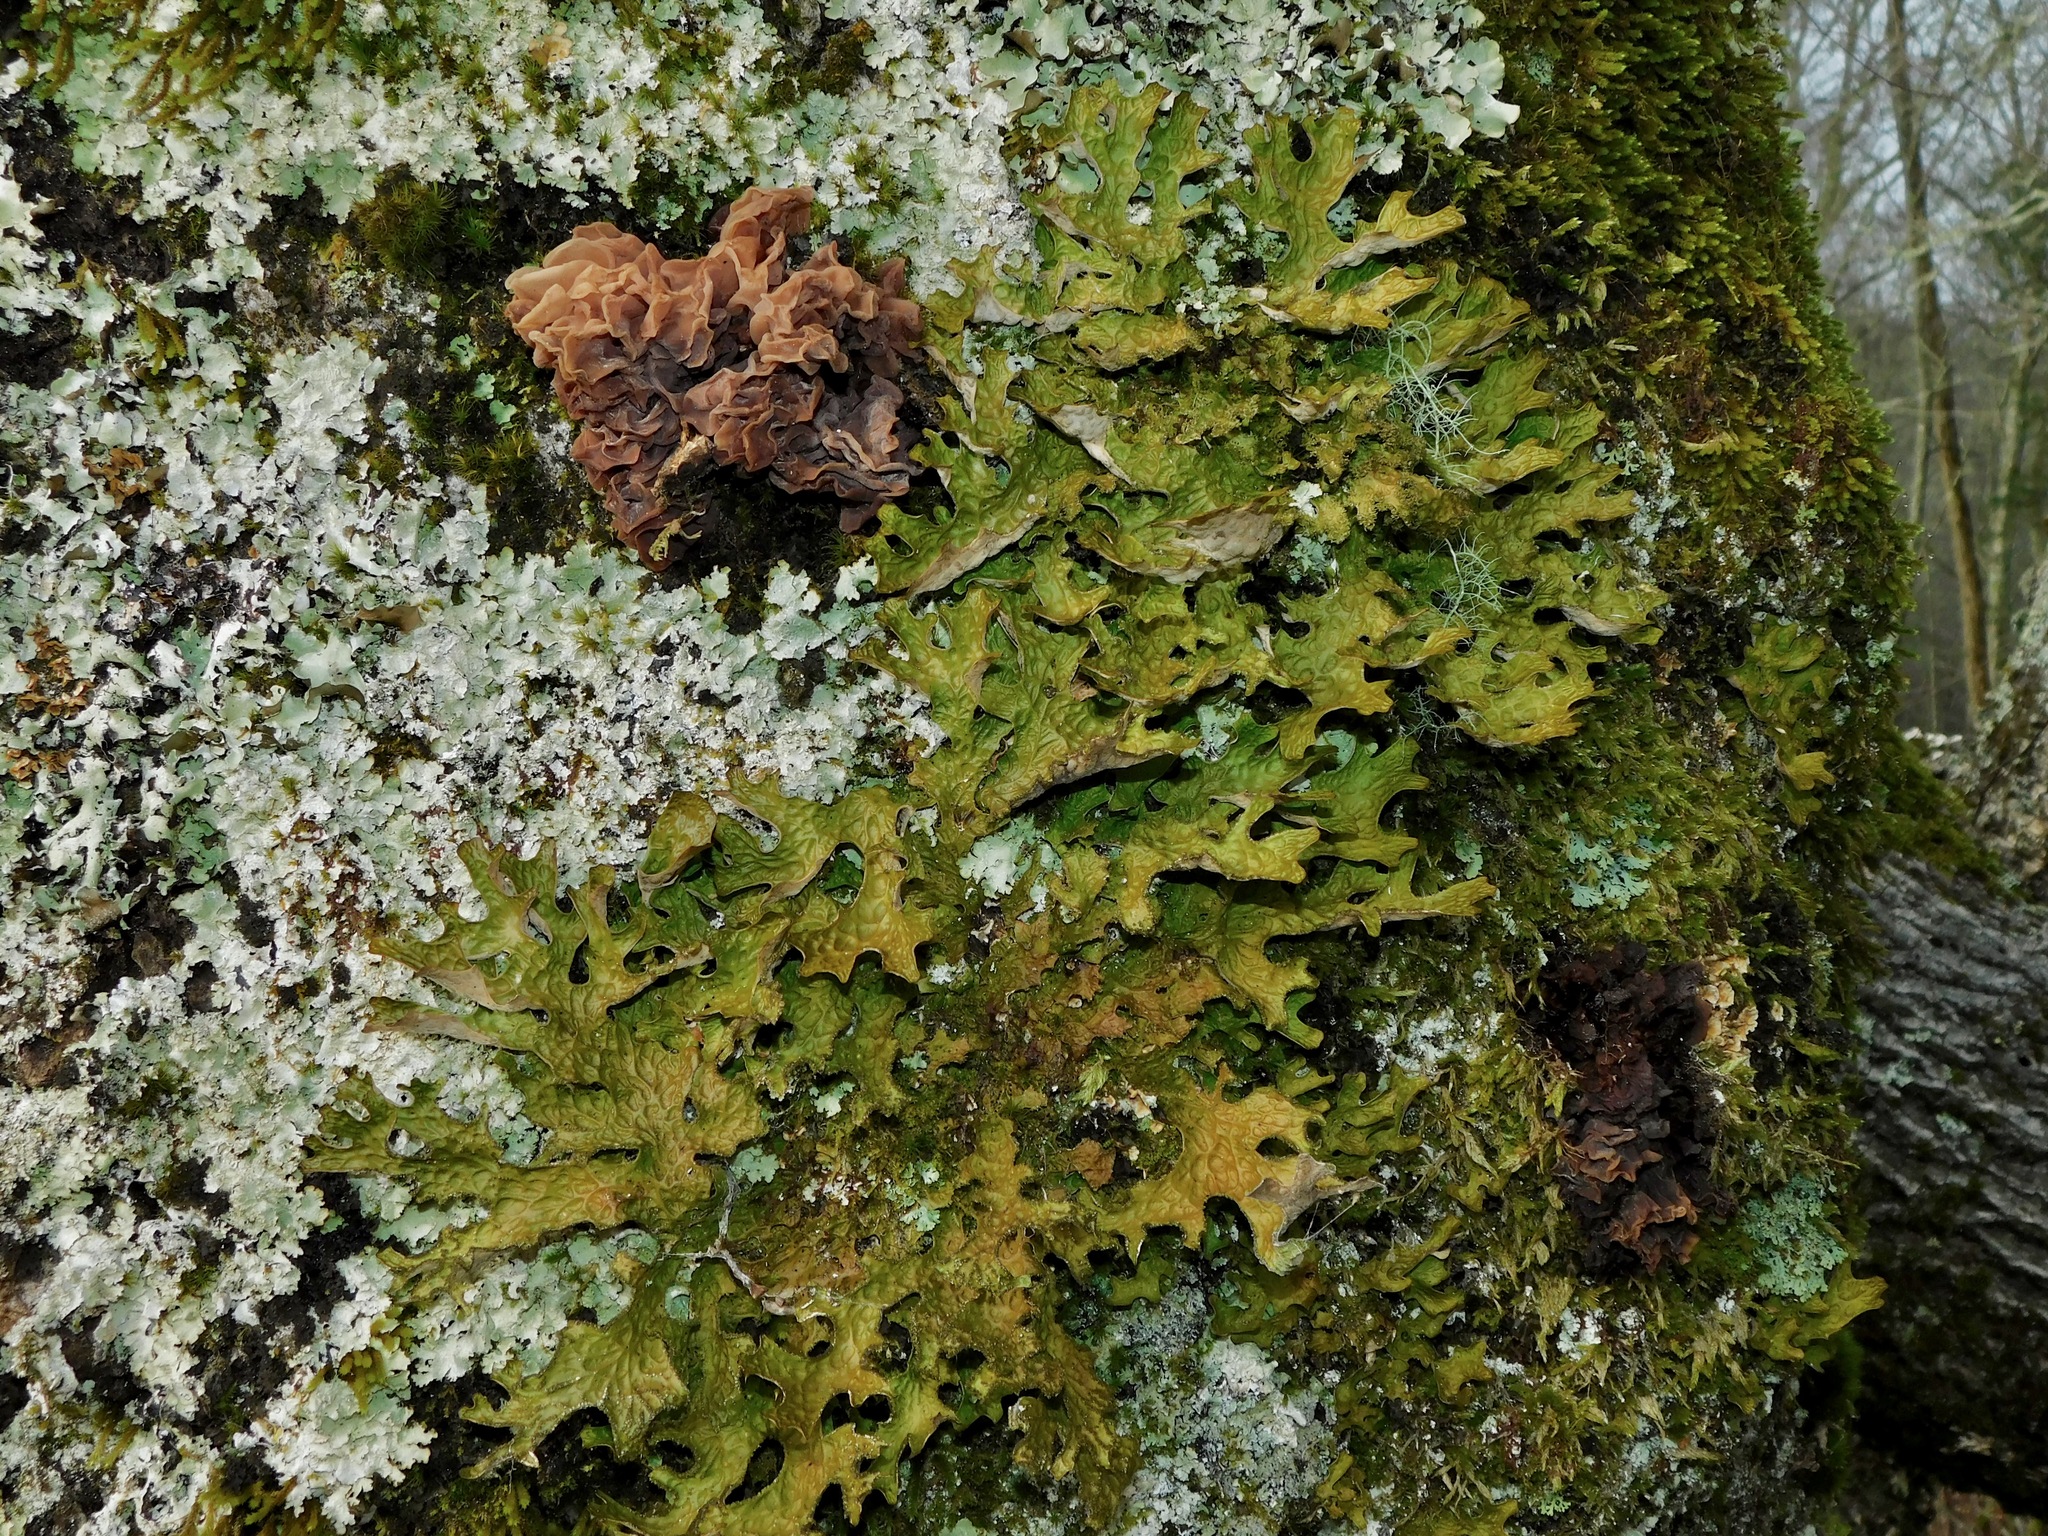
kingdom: Fungi
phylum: Basidiomycota
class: Tremellomycetes
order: Tremellales
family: Tremellaceae
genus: Phaeotremella
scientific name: Phaeotremella foliacea
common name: Leafy brain
